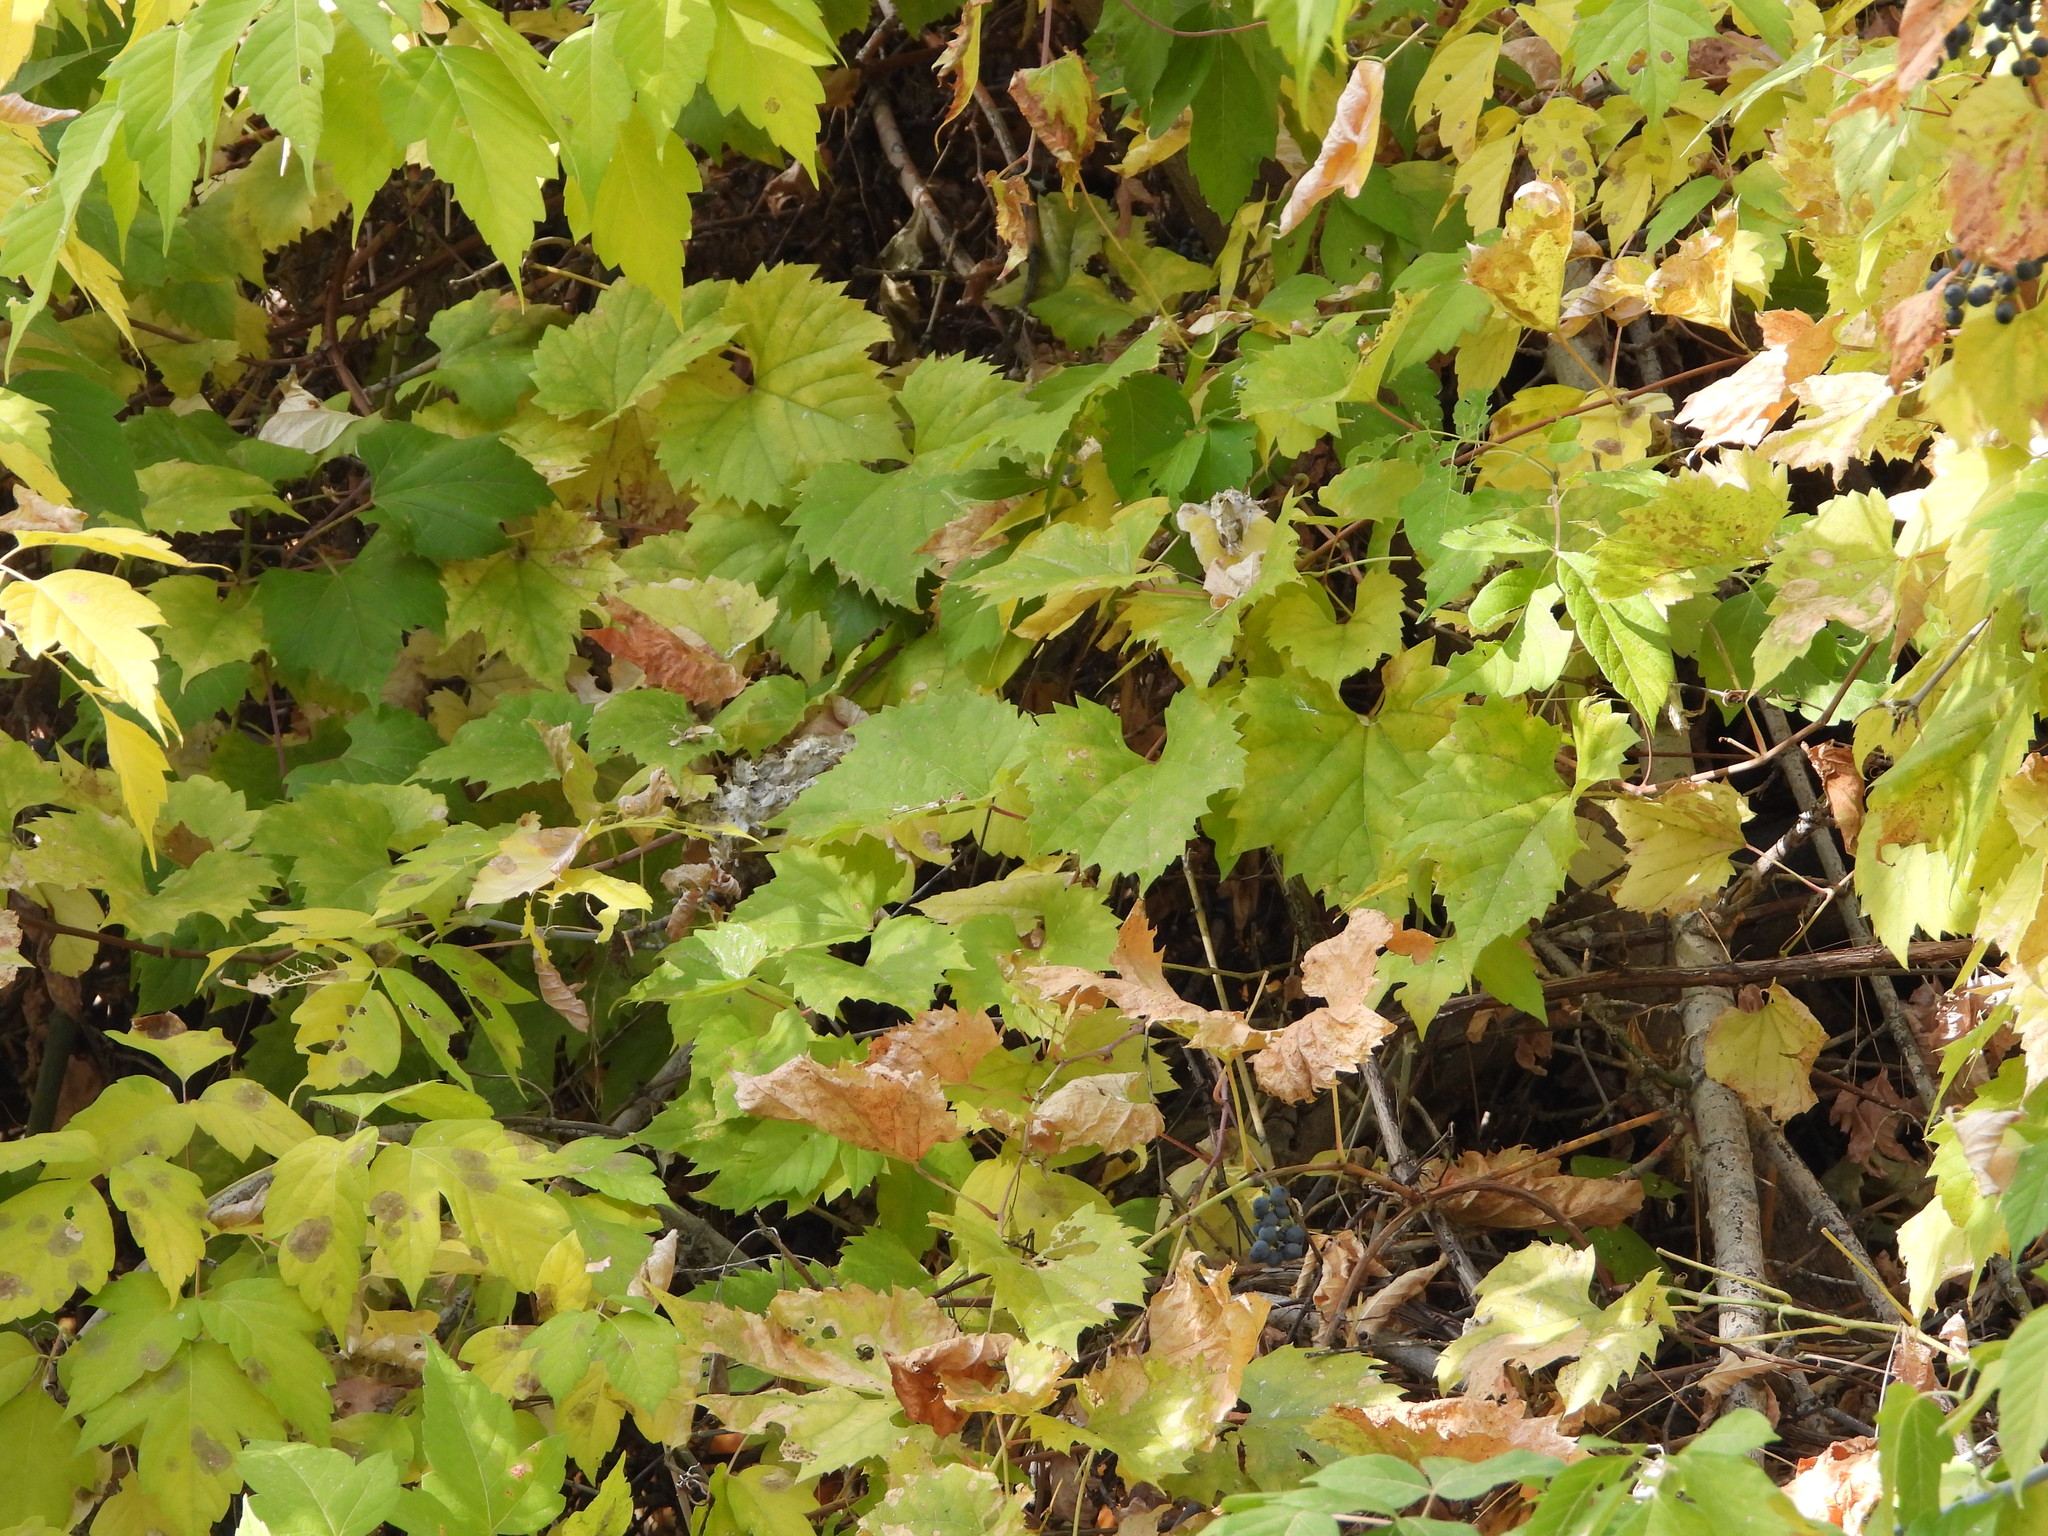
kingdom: Plantae
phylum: Tracheophyta
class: Magnoliopsida
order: Vitales
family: Vitaceae
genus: Vitis
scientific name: Vitis riparia
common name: Frost grape
